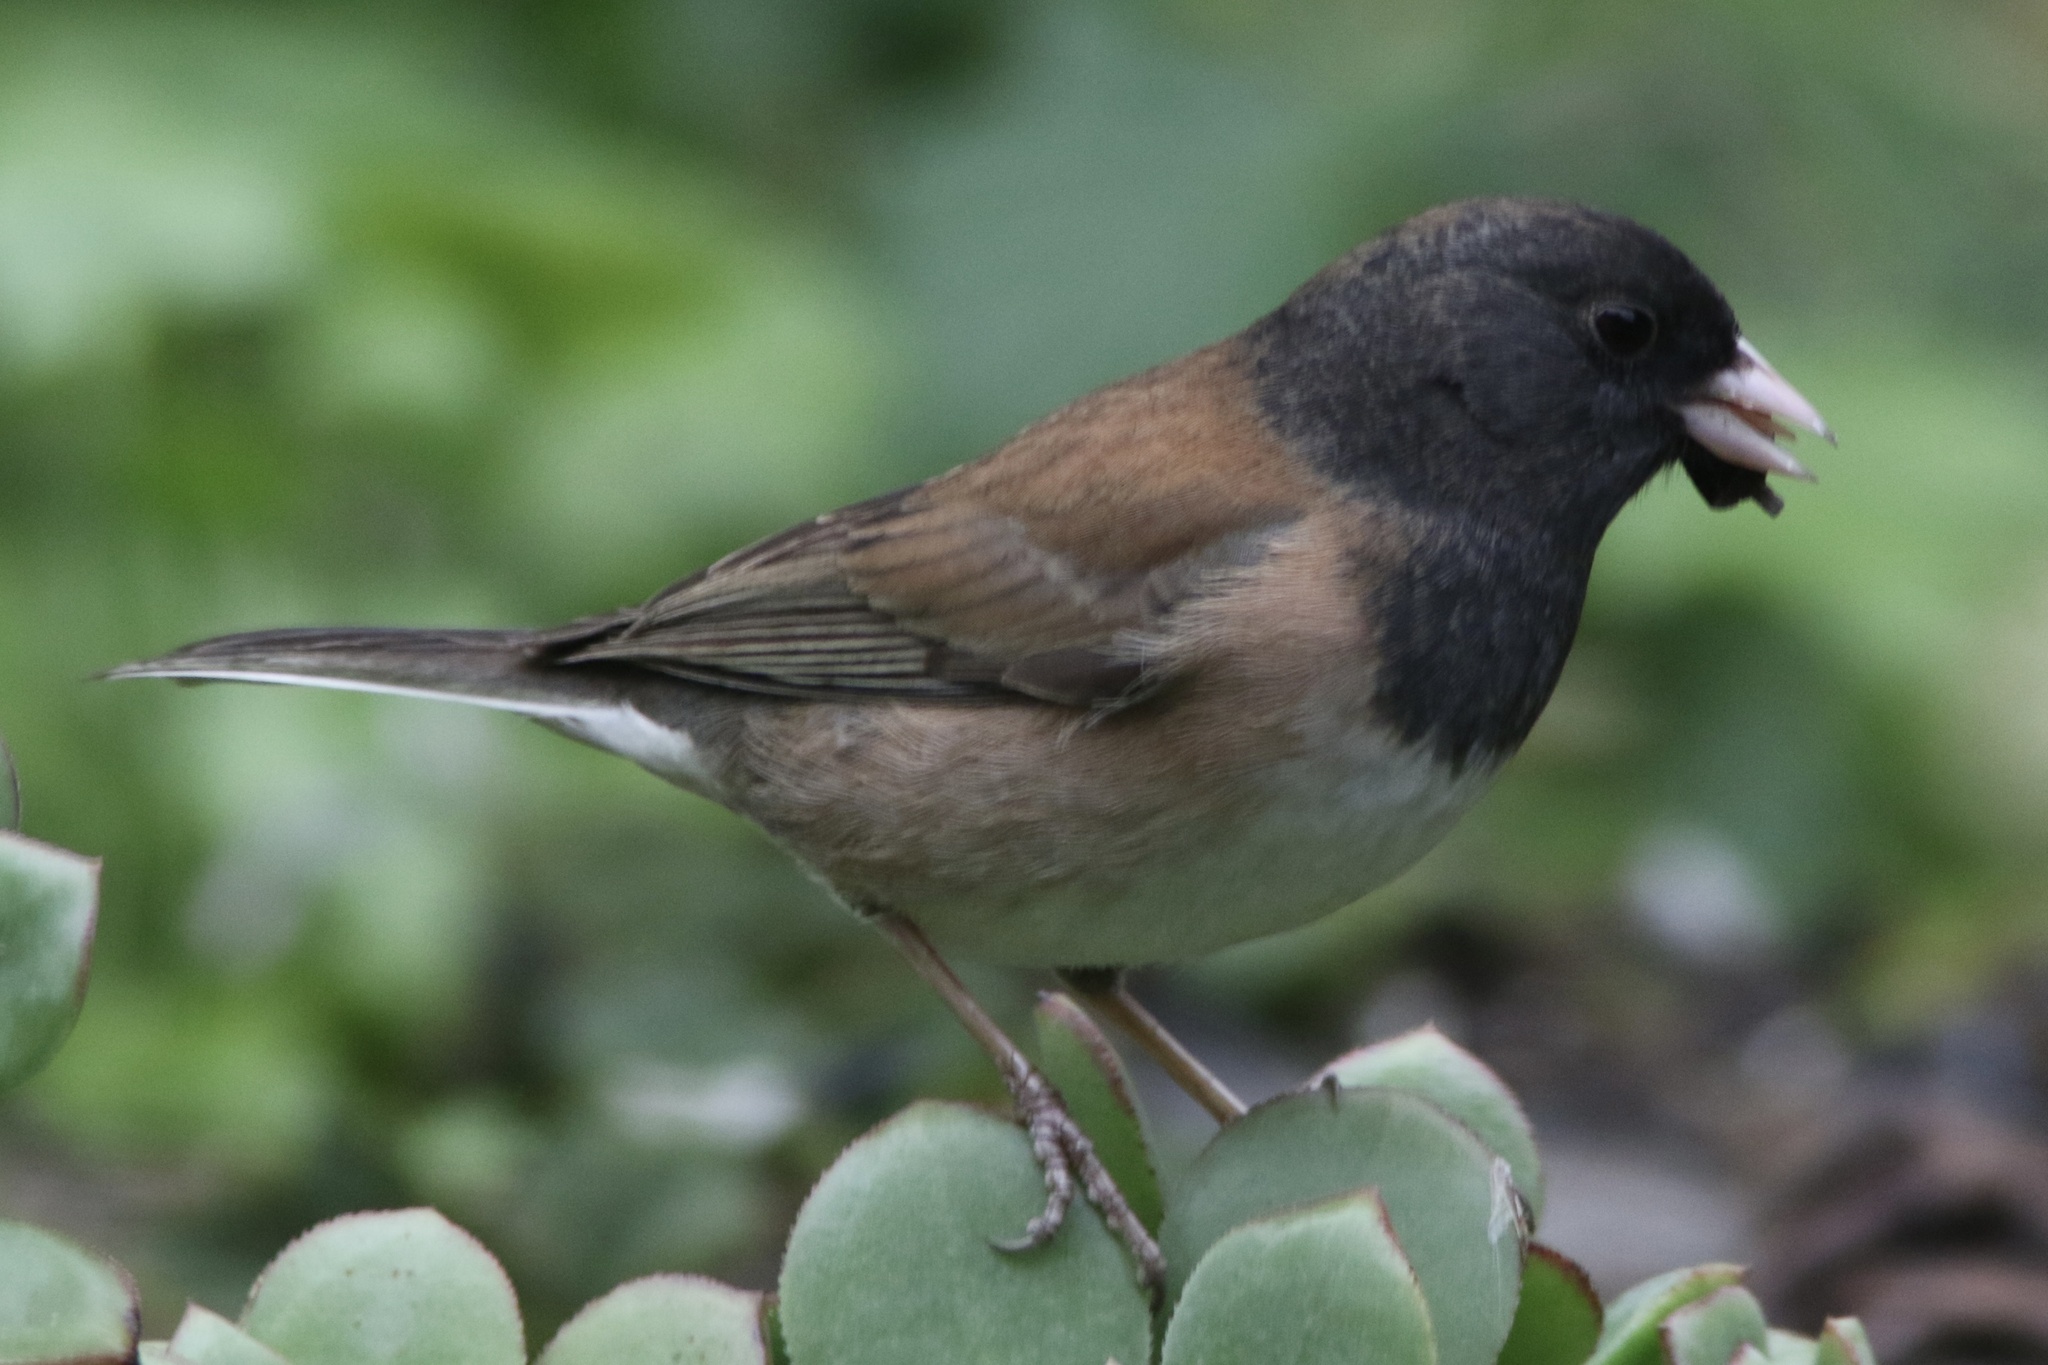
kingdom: Animalia
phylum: Chordata
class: Aves
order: Passeriformes
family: Passerellidae
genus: Junco
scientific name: Junco hyemalis
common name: Dark-eyed junco
